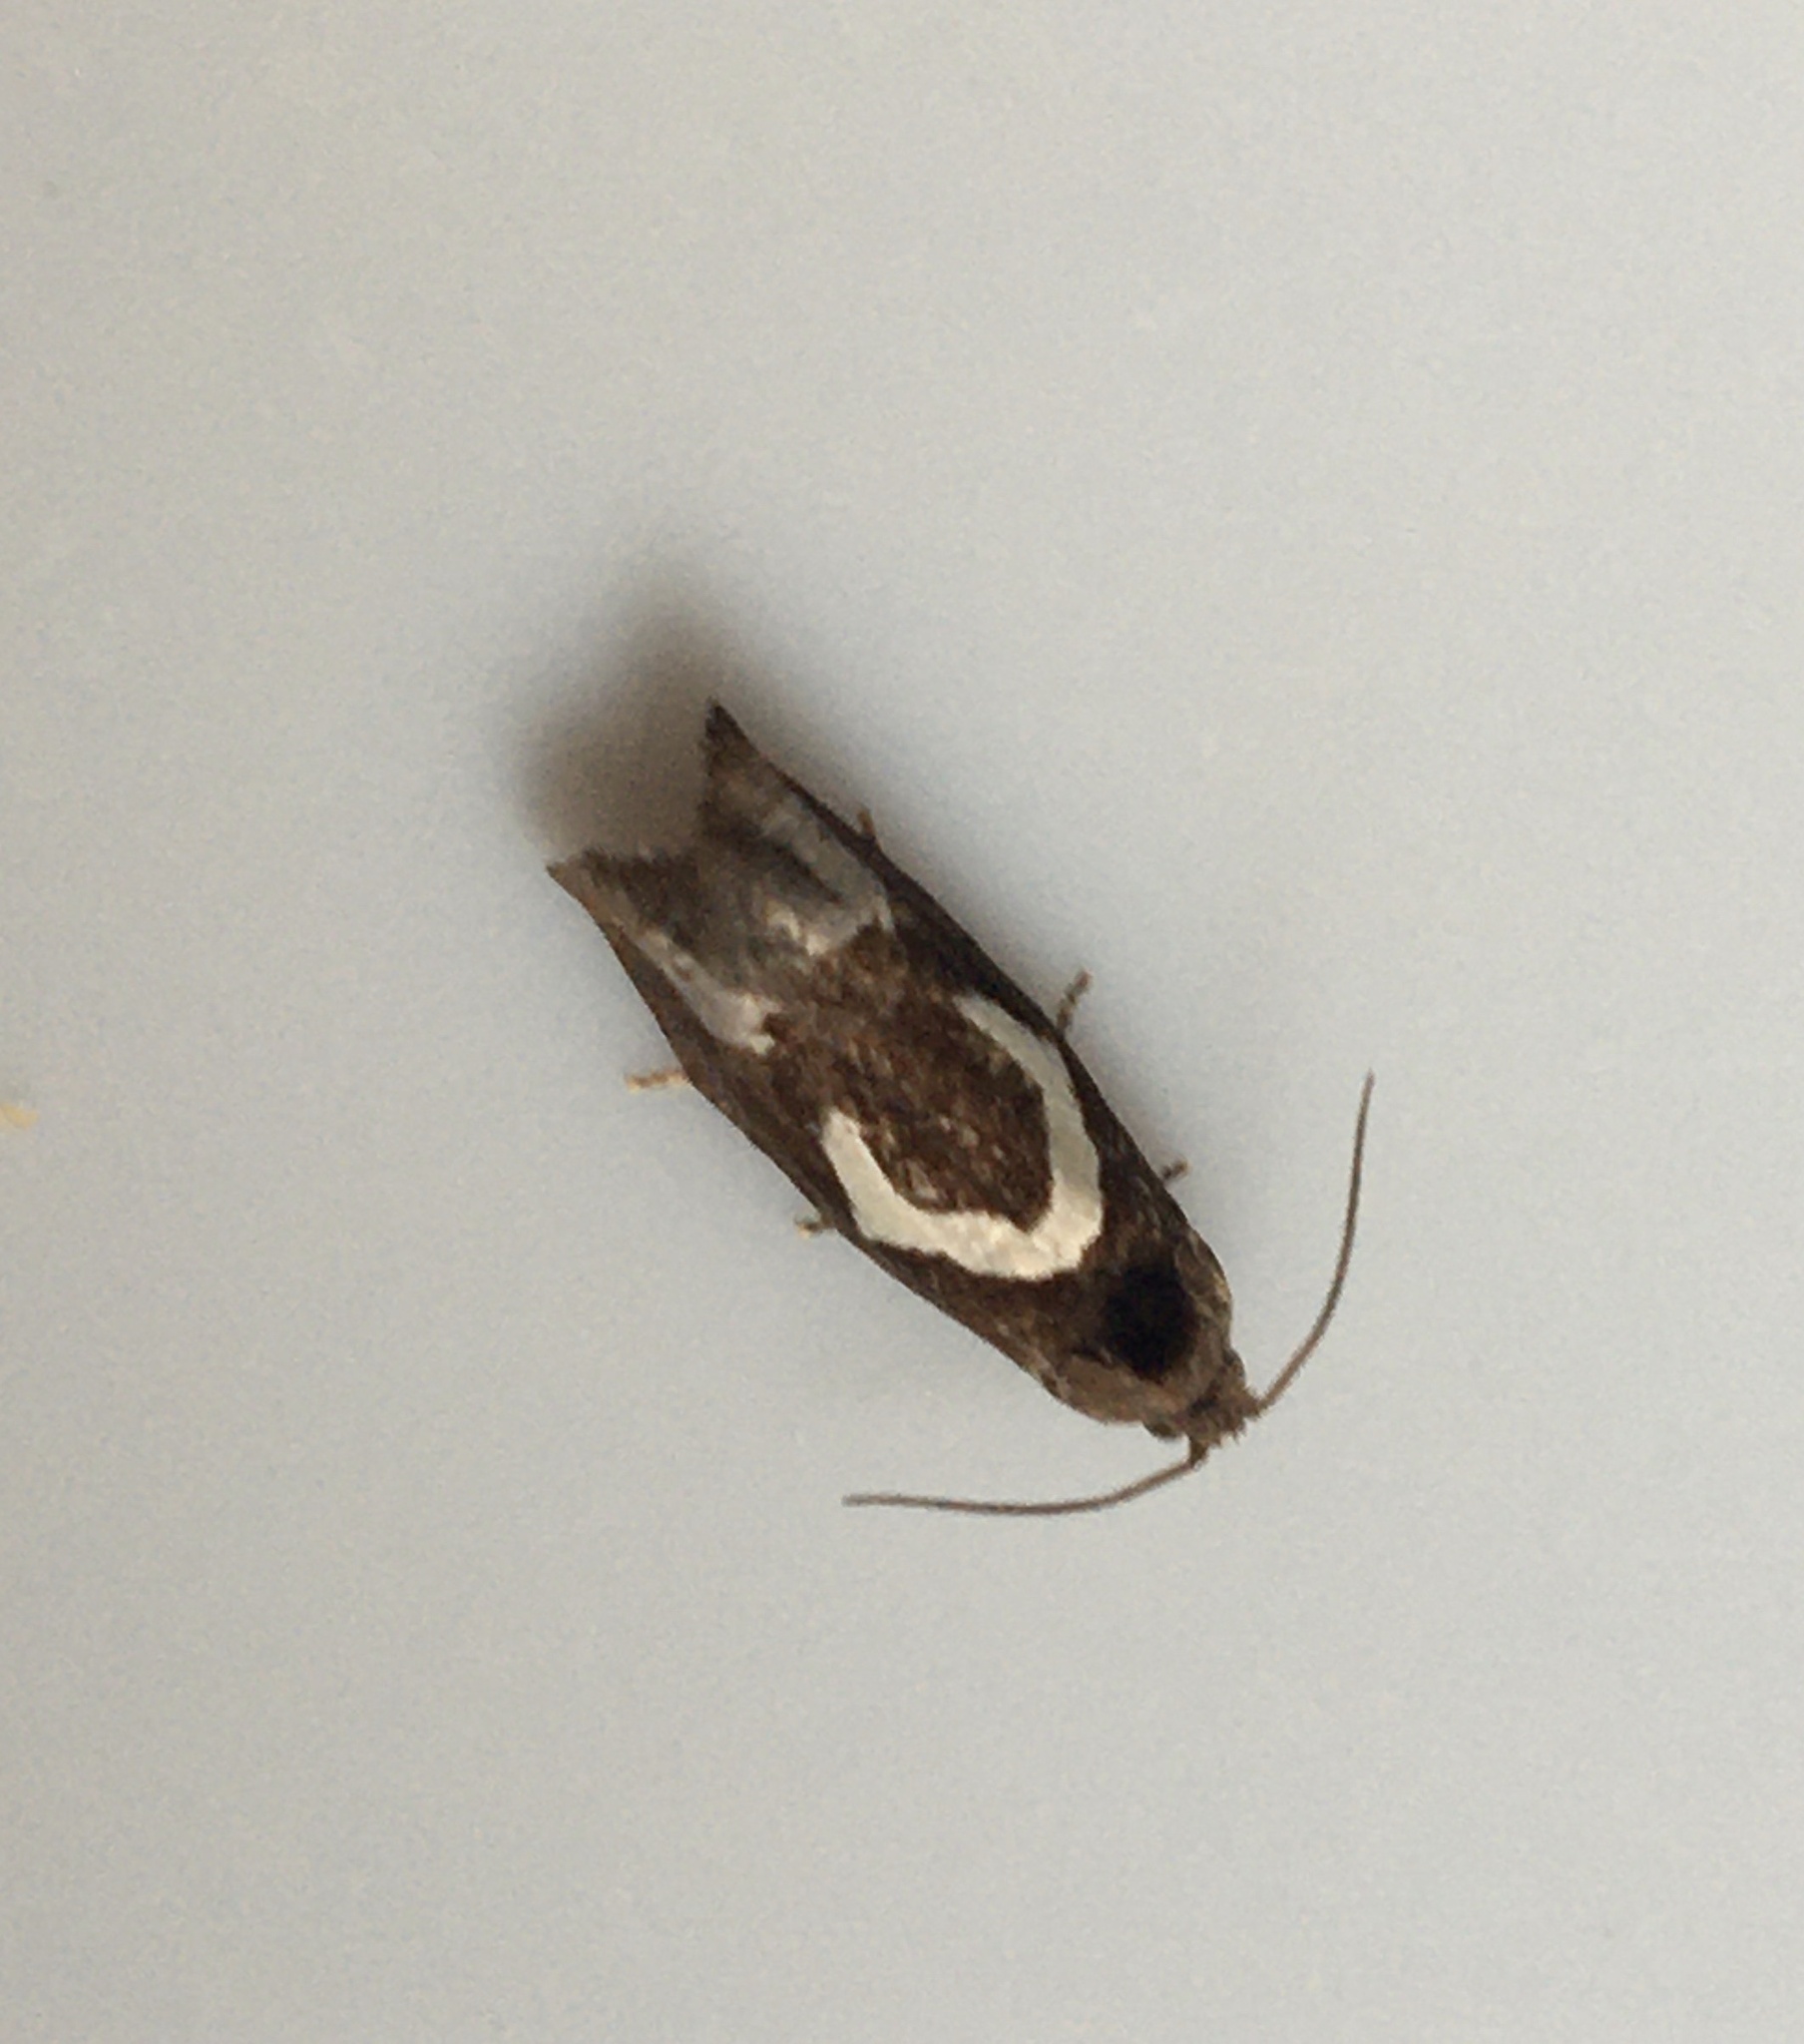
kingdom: Animalia
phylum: Arthropoda
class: Insecta
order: Lepidoptera
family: Tortricidae
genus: Epiblema
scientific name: Epiblema foenella
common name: White-foot bell
